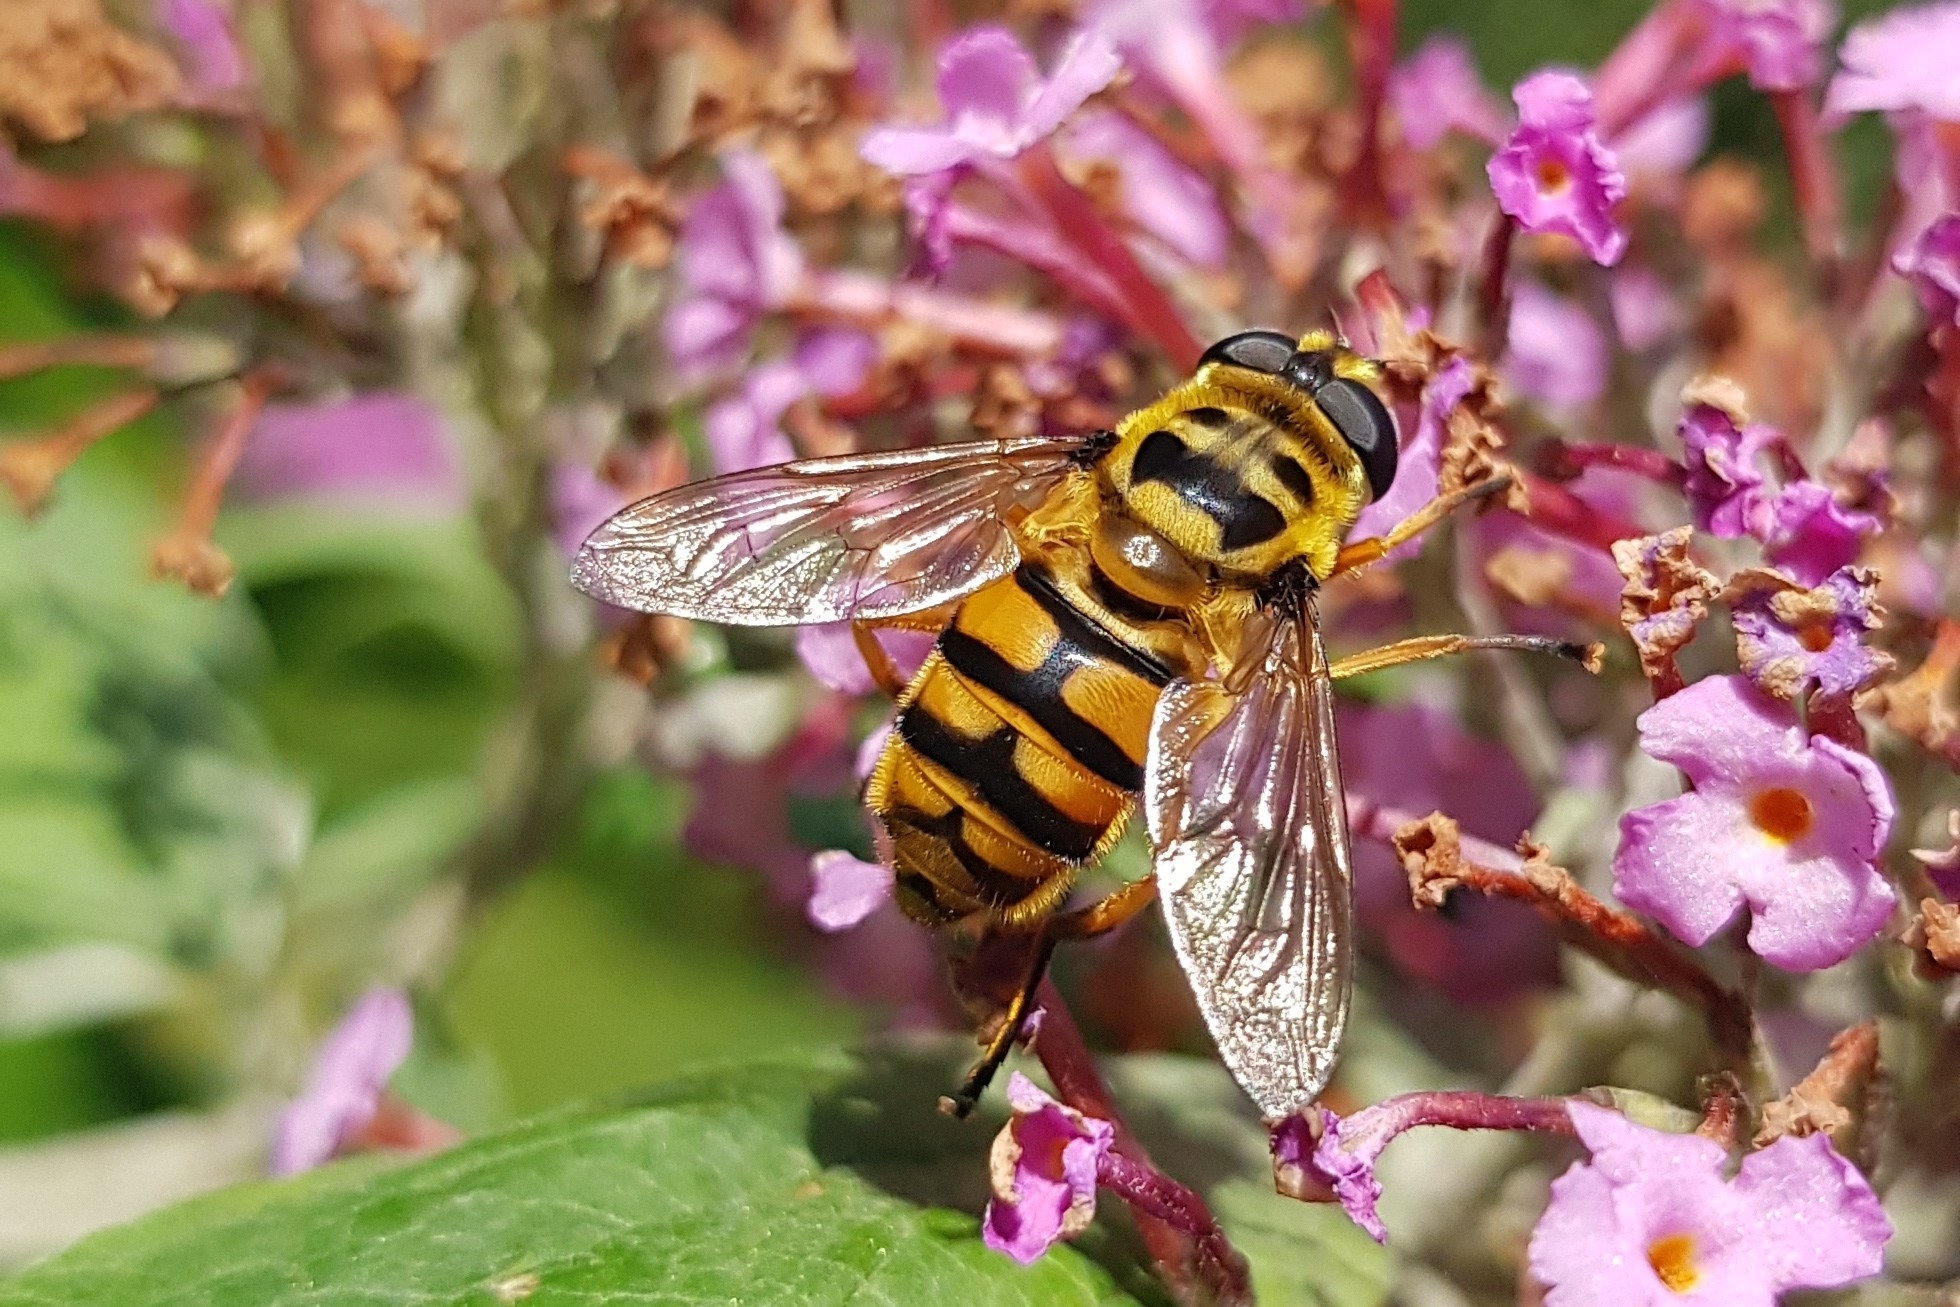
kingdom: Animalia
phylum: Arthropoda
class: Insecta
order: Diptera
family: Syrphidae
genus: Myathropa
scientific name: Myathropa florea
